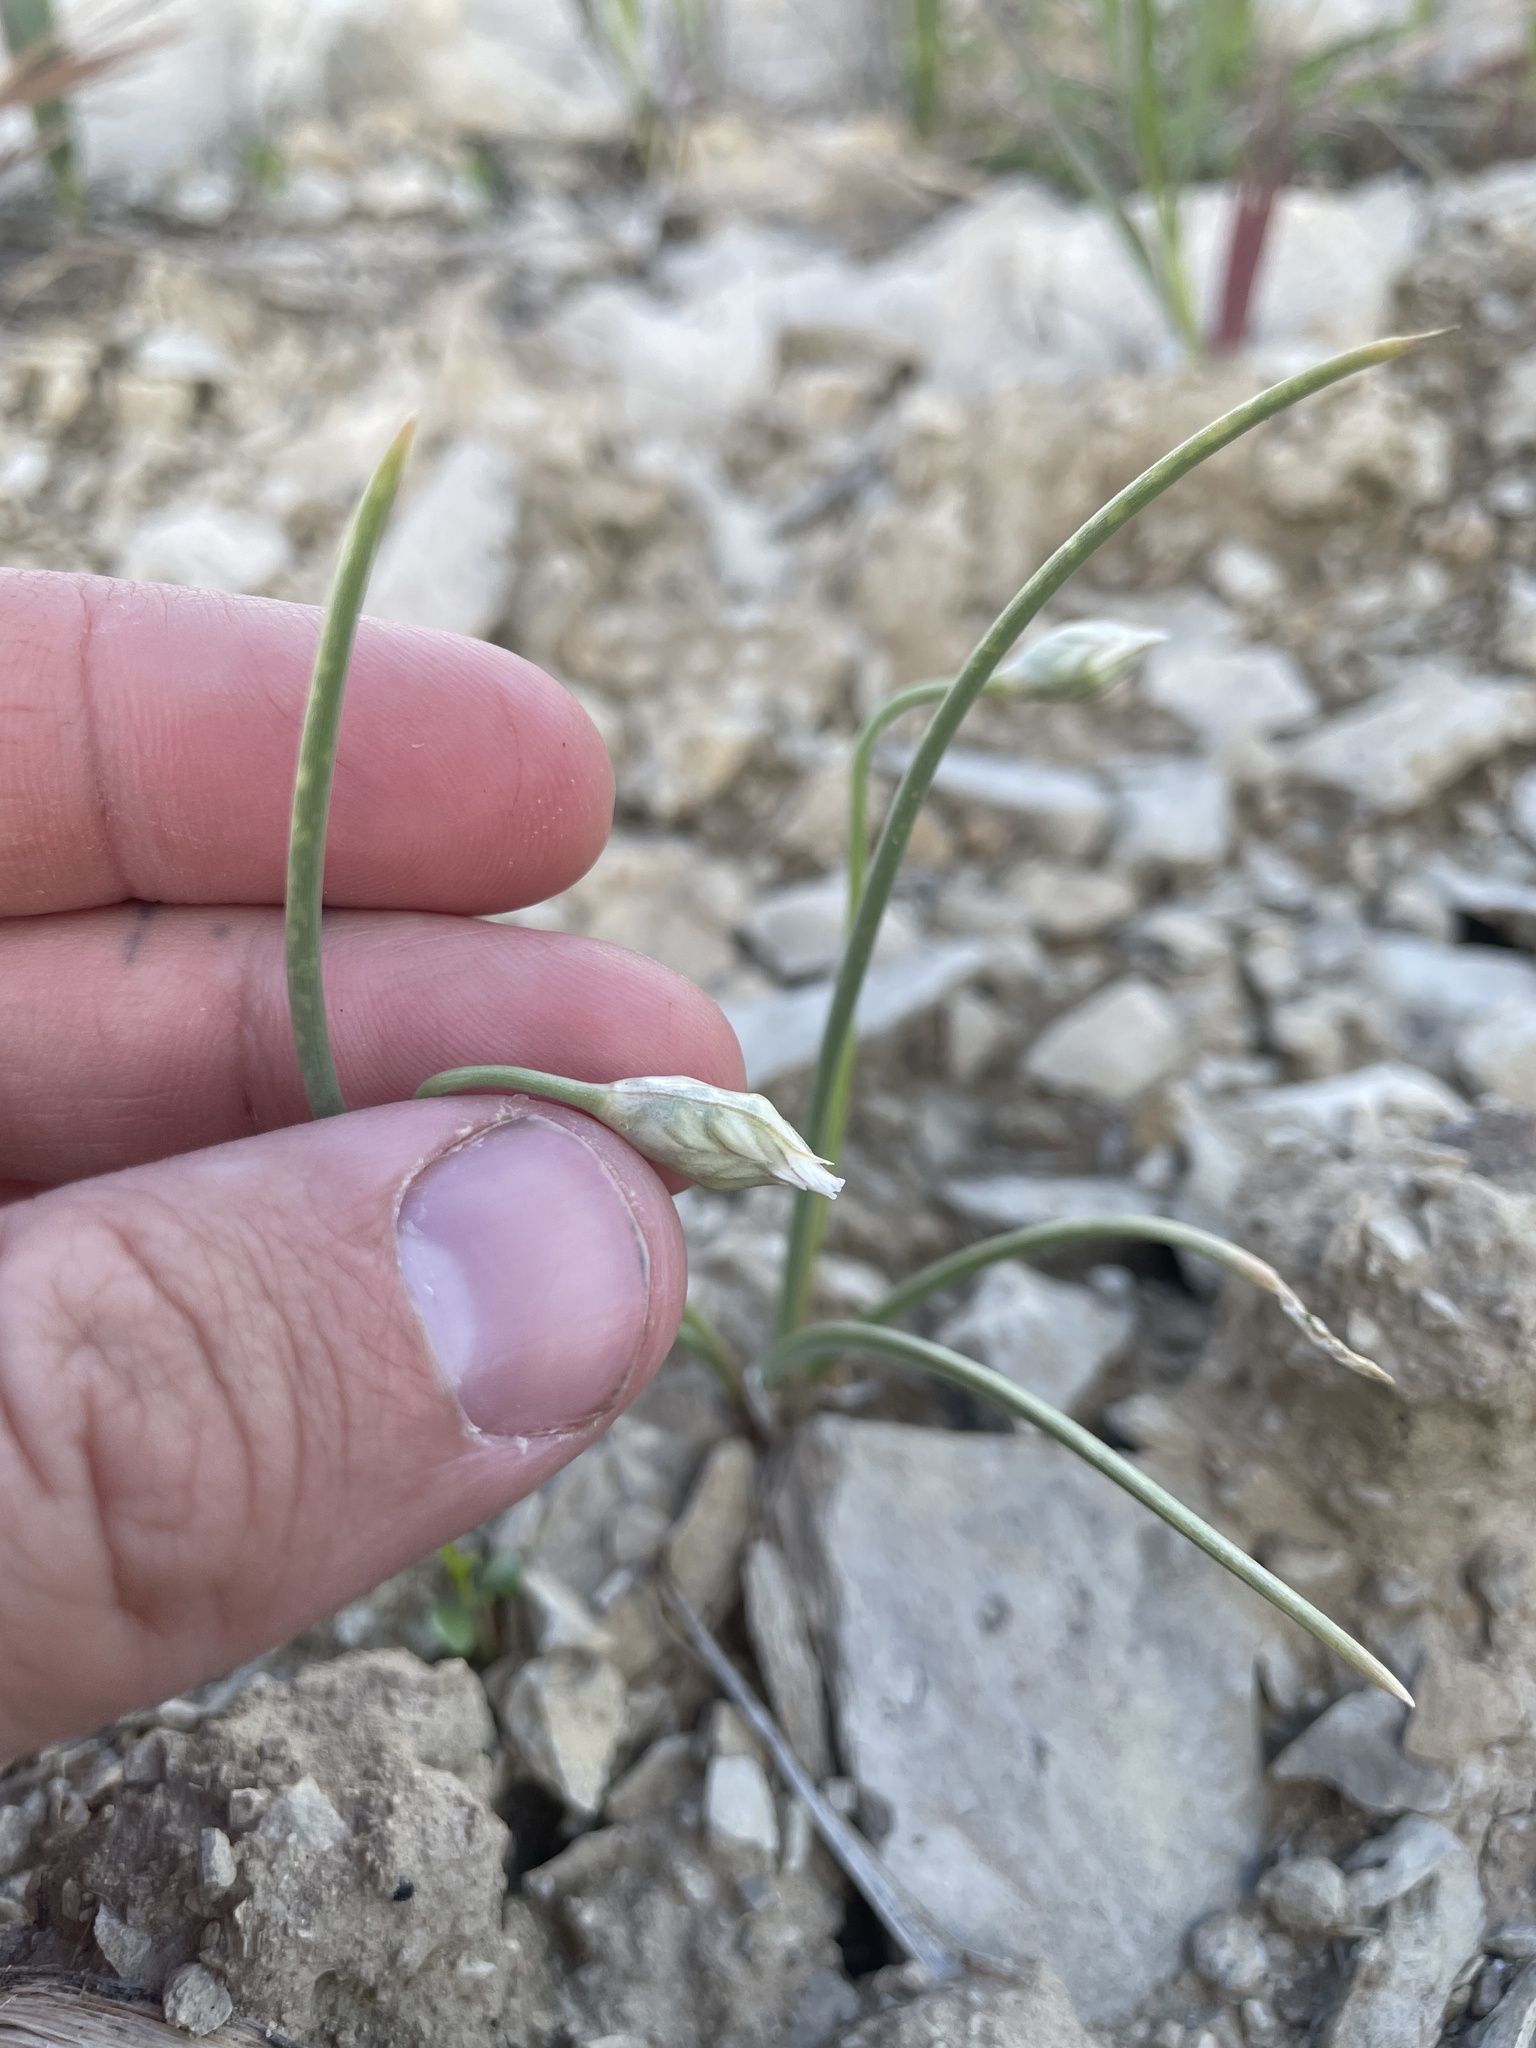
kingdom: Plantae
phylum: Tracheophyta
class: Liliopsida
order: Asparagales
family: Amaryllidaceae
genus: Allium
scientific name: Allium textile
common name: Prairie onion
